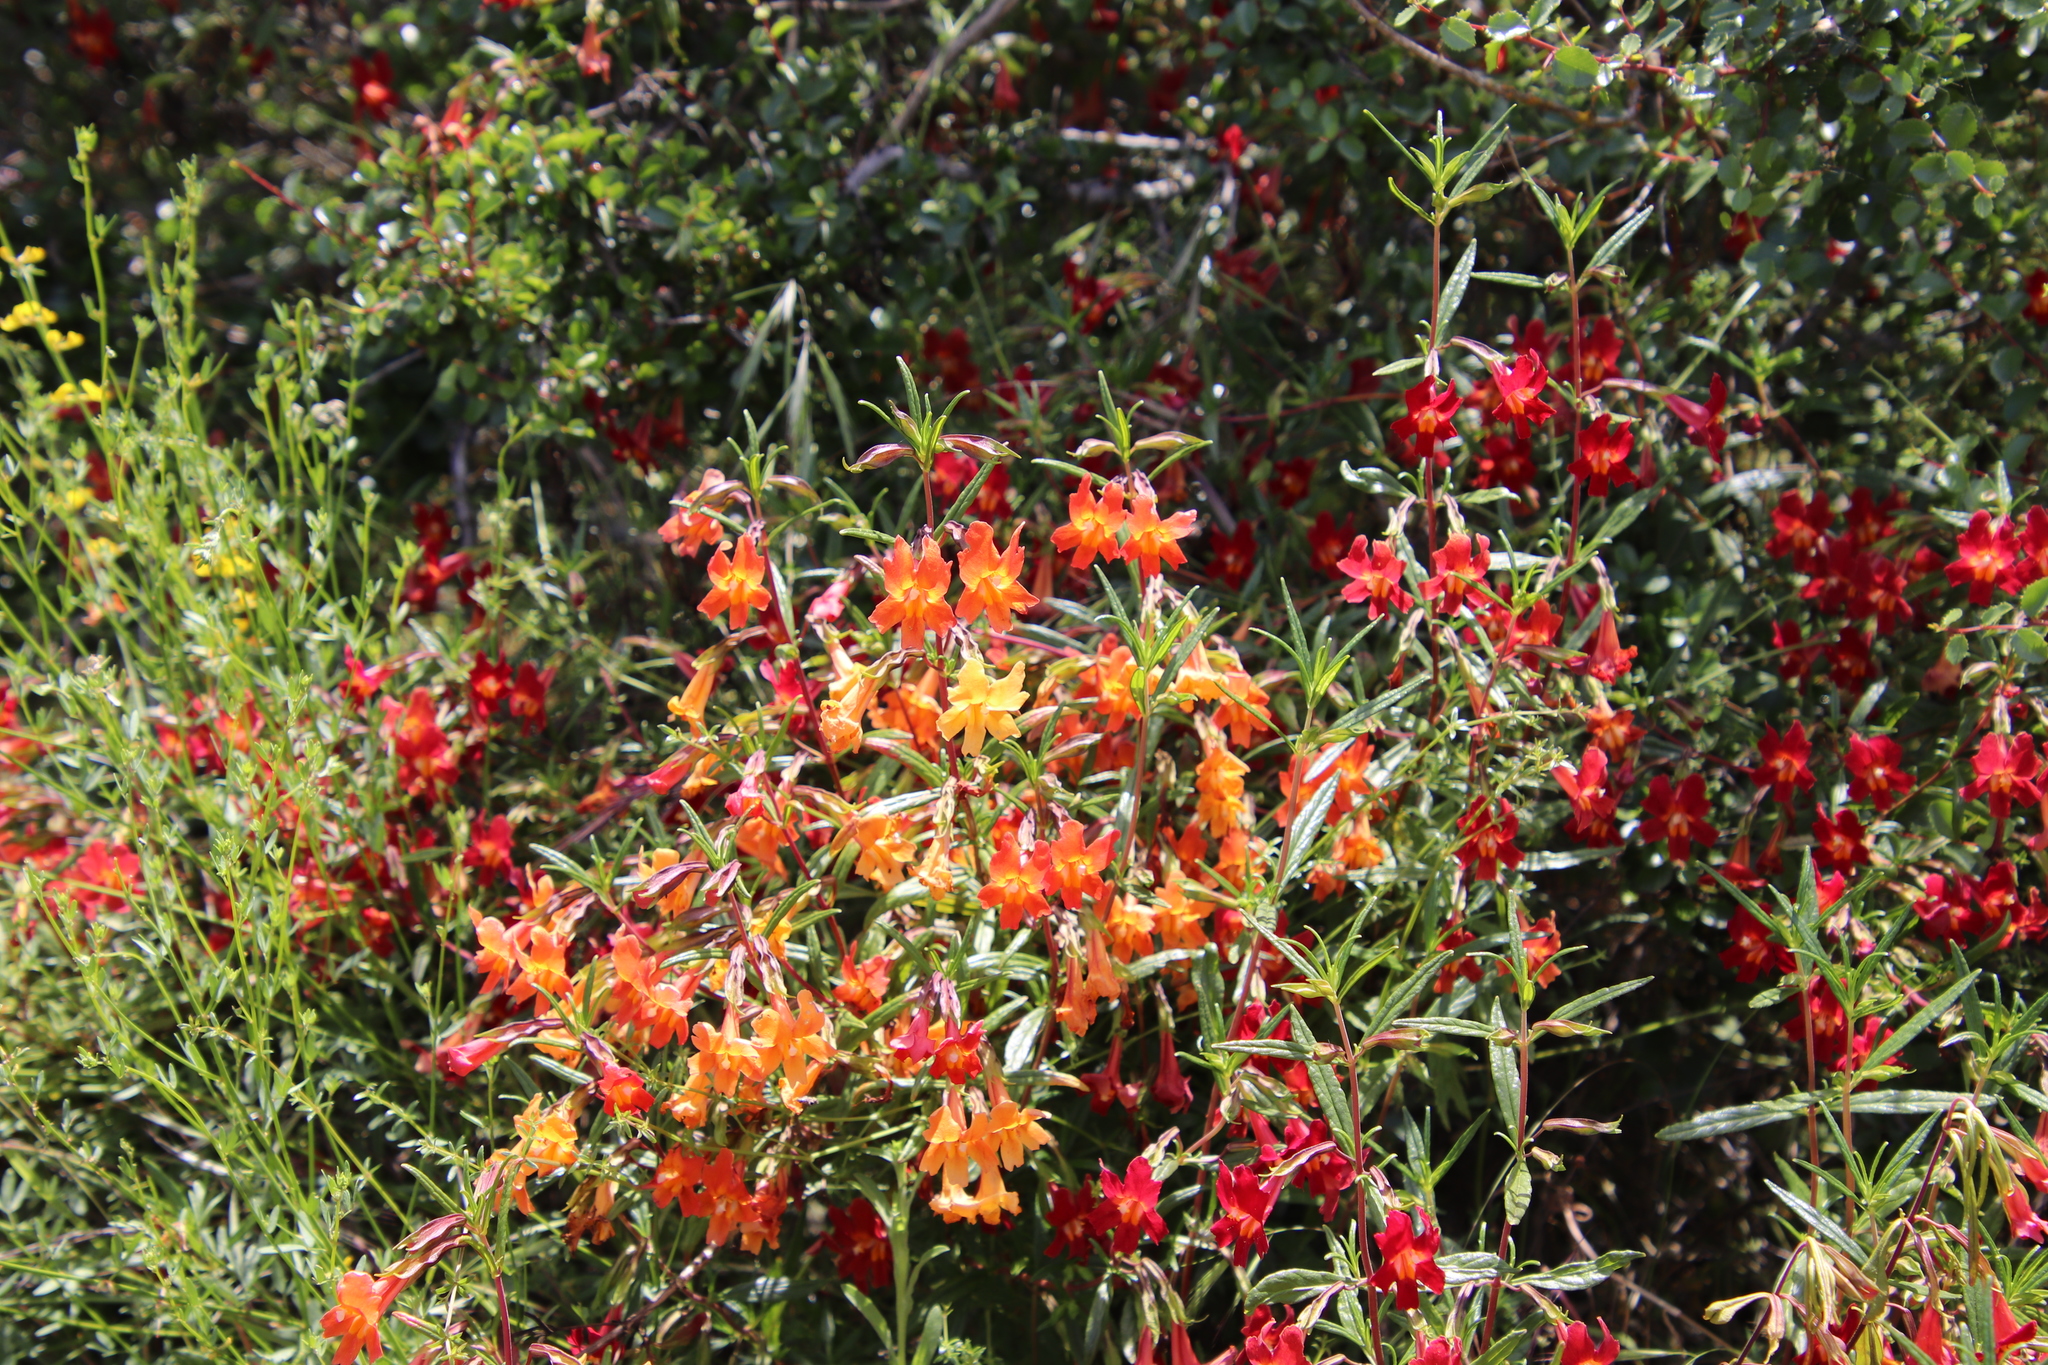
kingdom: Plantae
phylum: Tracheophyta
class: Magnoliopsida
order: Lamiales
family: Phrymaceae
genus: Diplacus
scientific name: Diplacus australis
